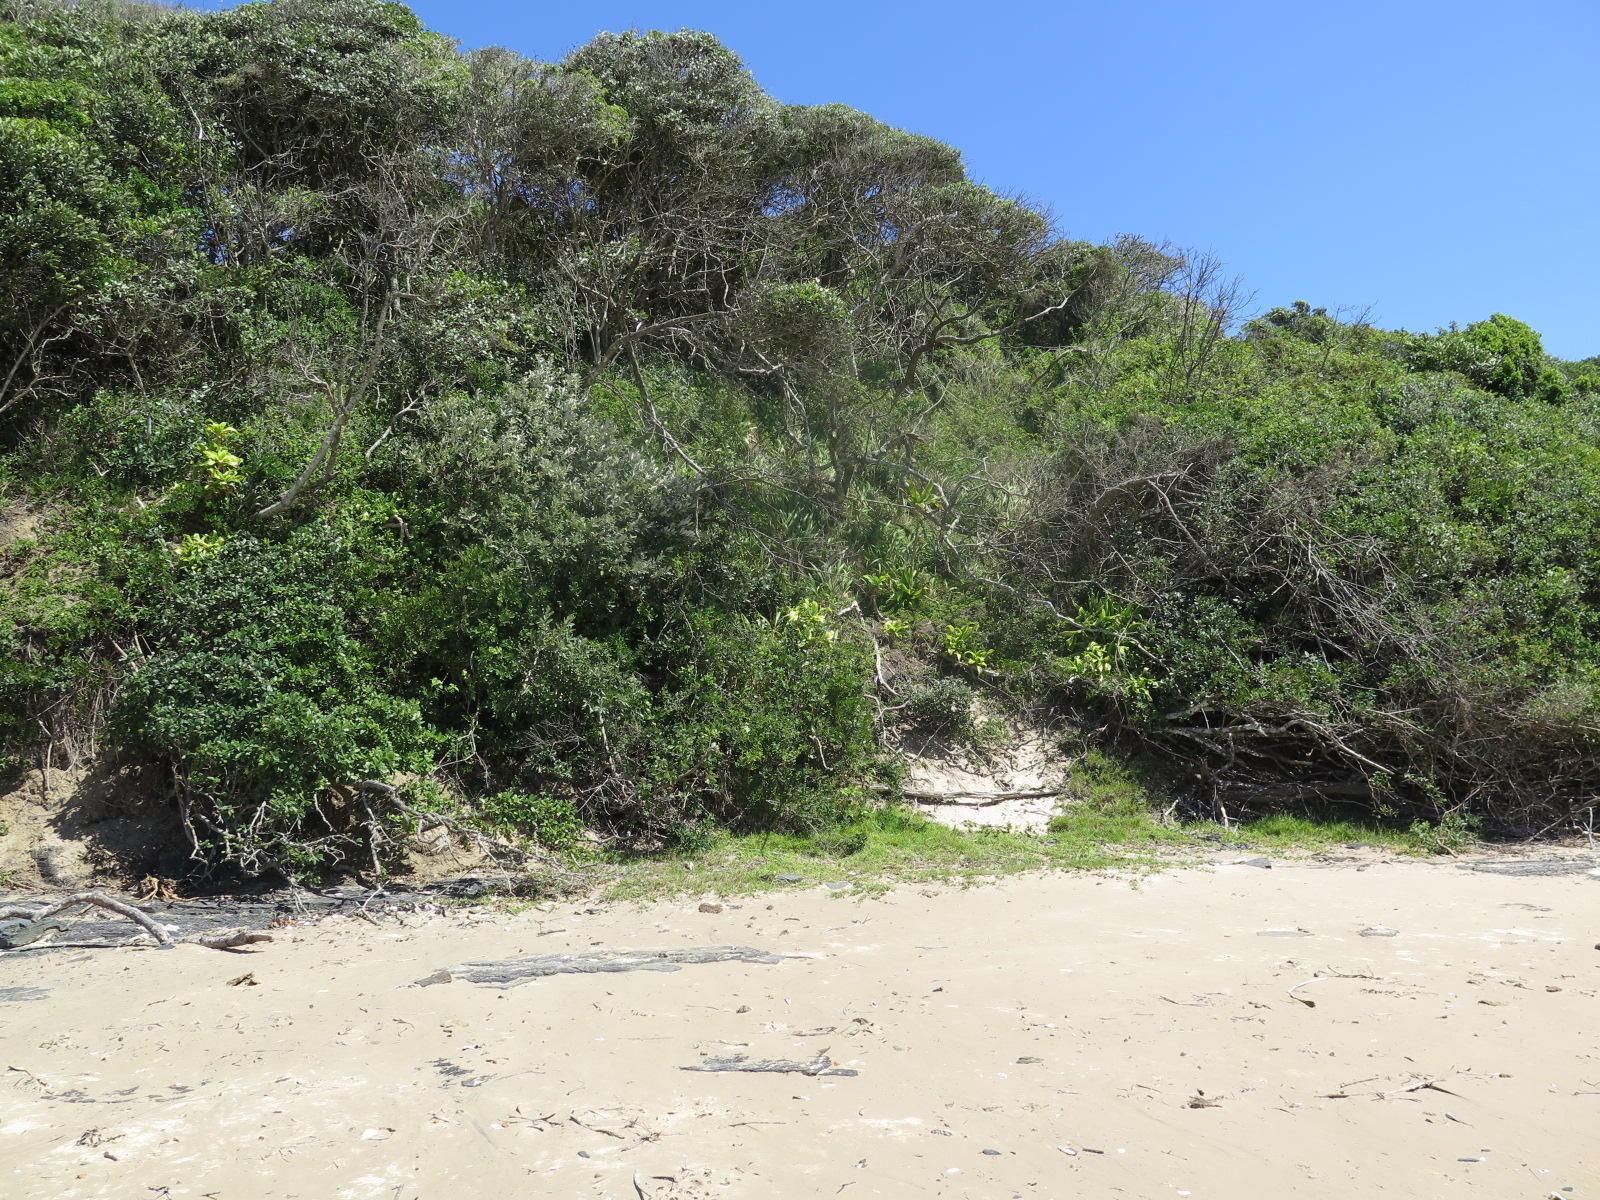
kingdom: Plantae
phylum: Tracheophyta
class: Liliopsida
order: Asparagales
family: Asparagaceae
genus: Dracaena
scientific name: Dracaena aletriformis
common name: Large-leaved dragon tree
